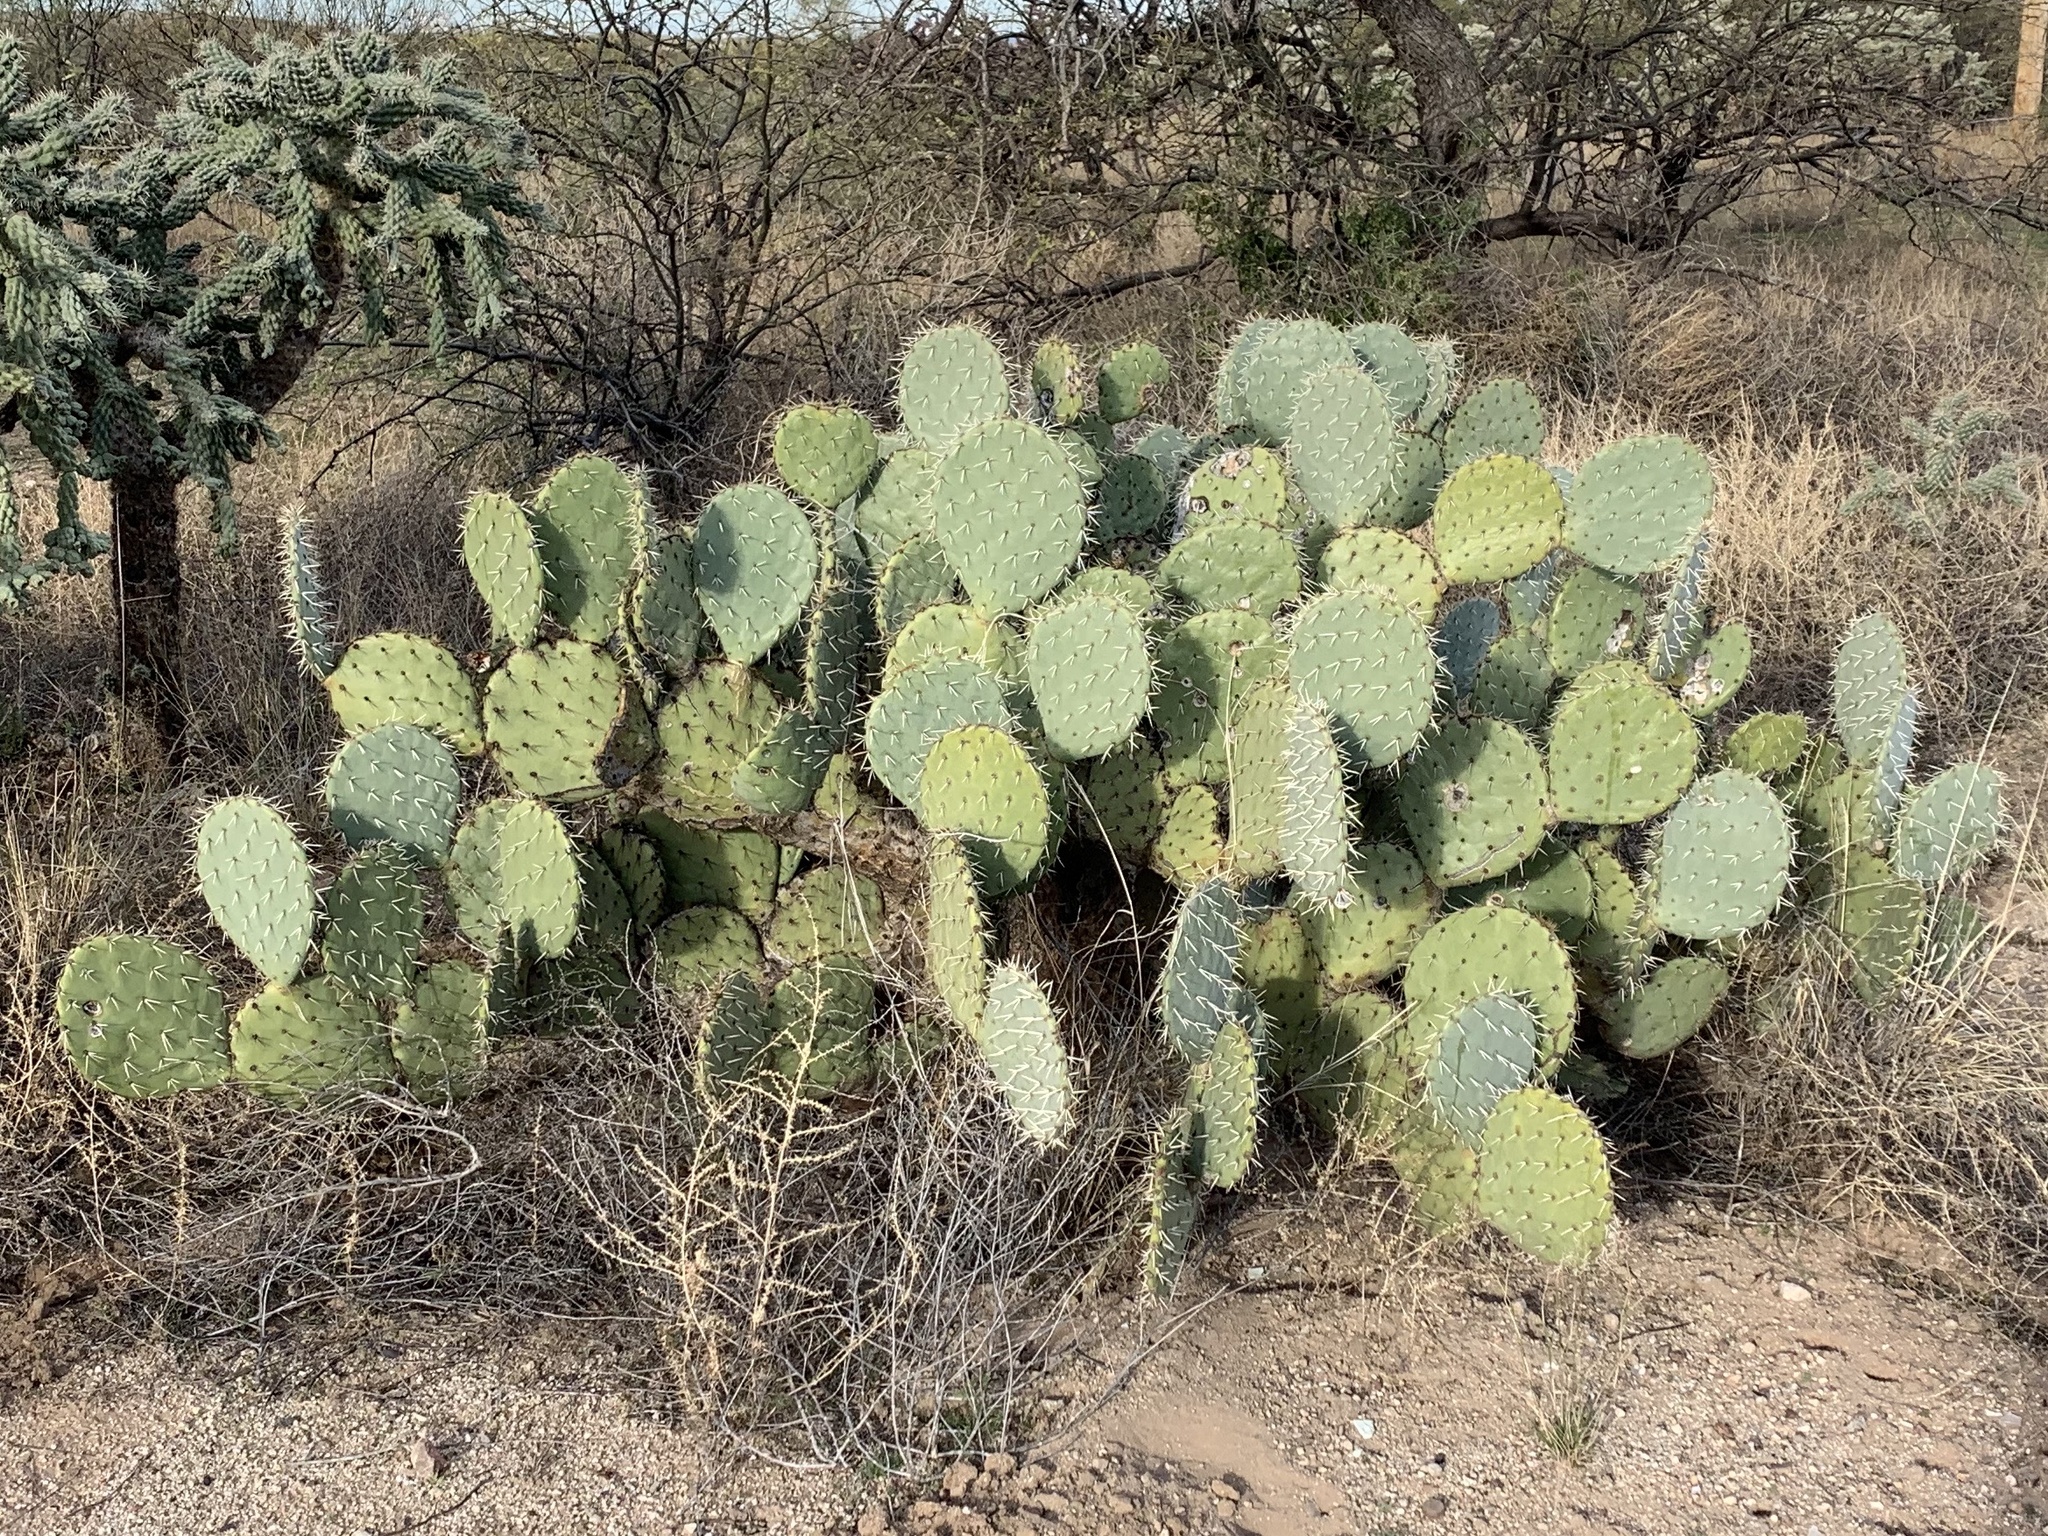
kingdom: Plantae
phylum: Tracheophyta
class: Magnoliopsida
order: Caryophyllales
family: Cactaceae
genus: Opuntia
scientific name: Opuntia engelmannii
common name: Cactus-apple
